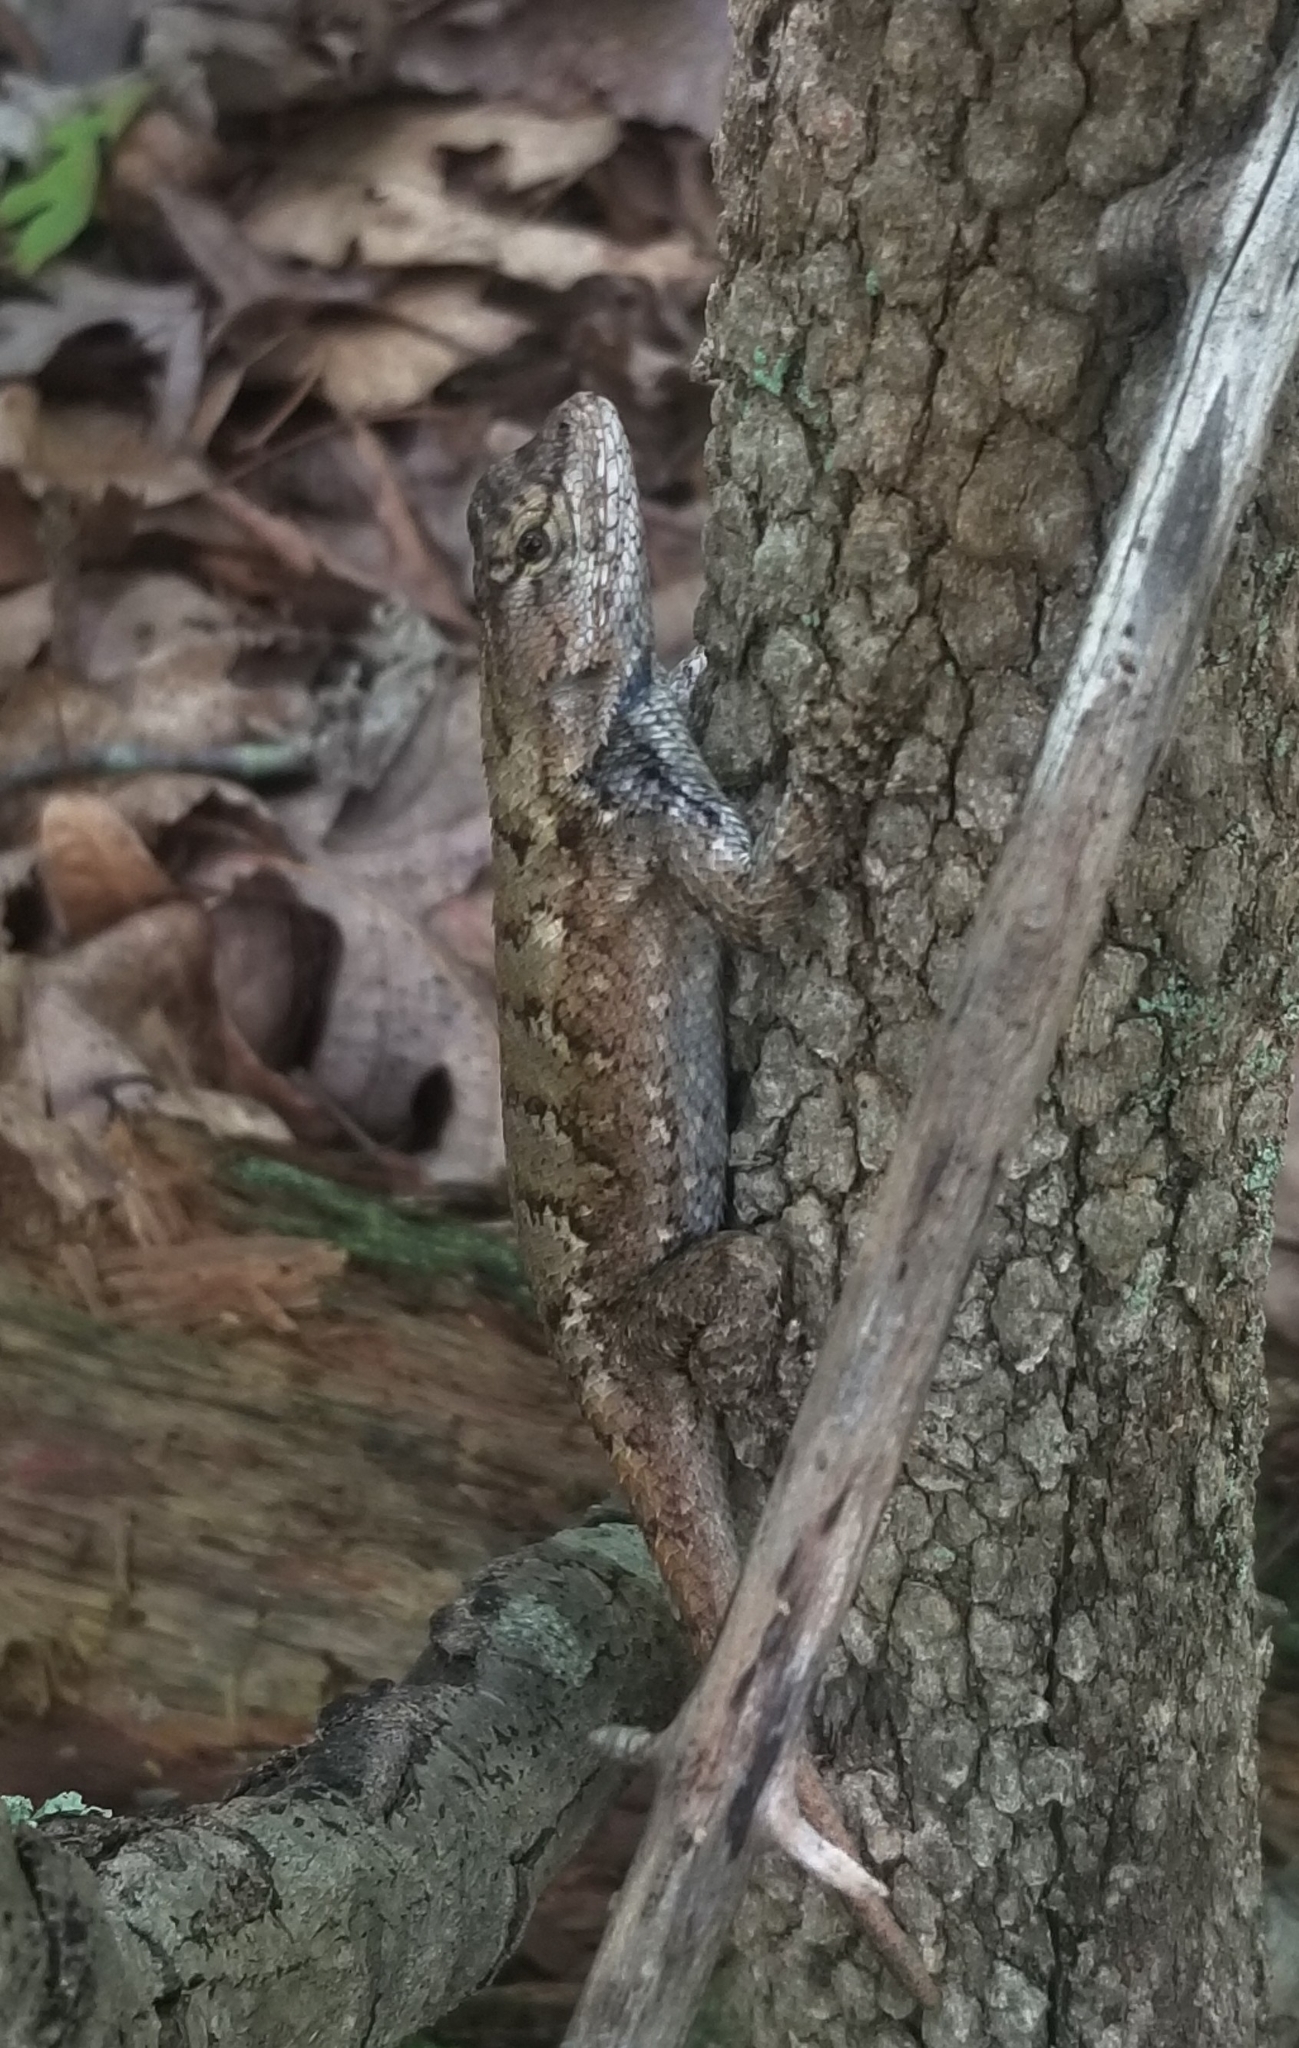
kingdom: Animalia
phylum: Chordata
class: Squamata
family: Phrynosomatidae
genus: Sceloporus
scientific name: Sceloporus undulatus
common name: Eastern fence lizard
